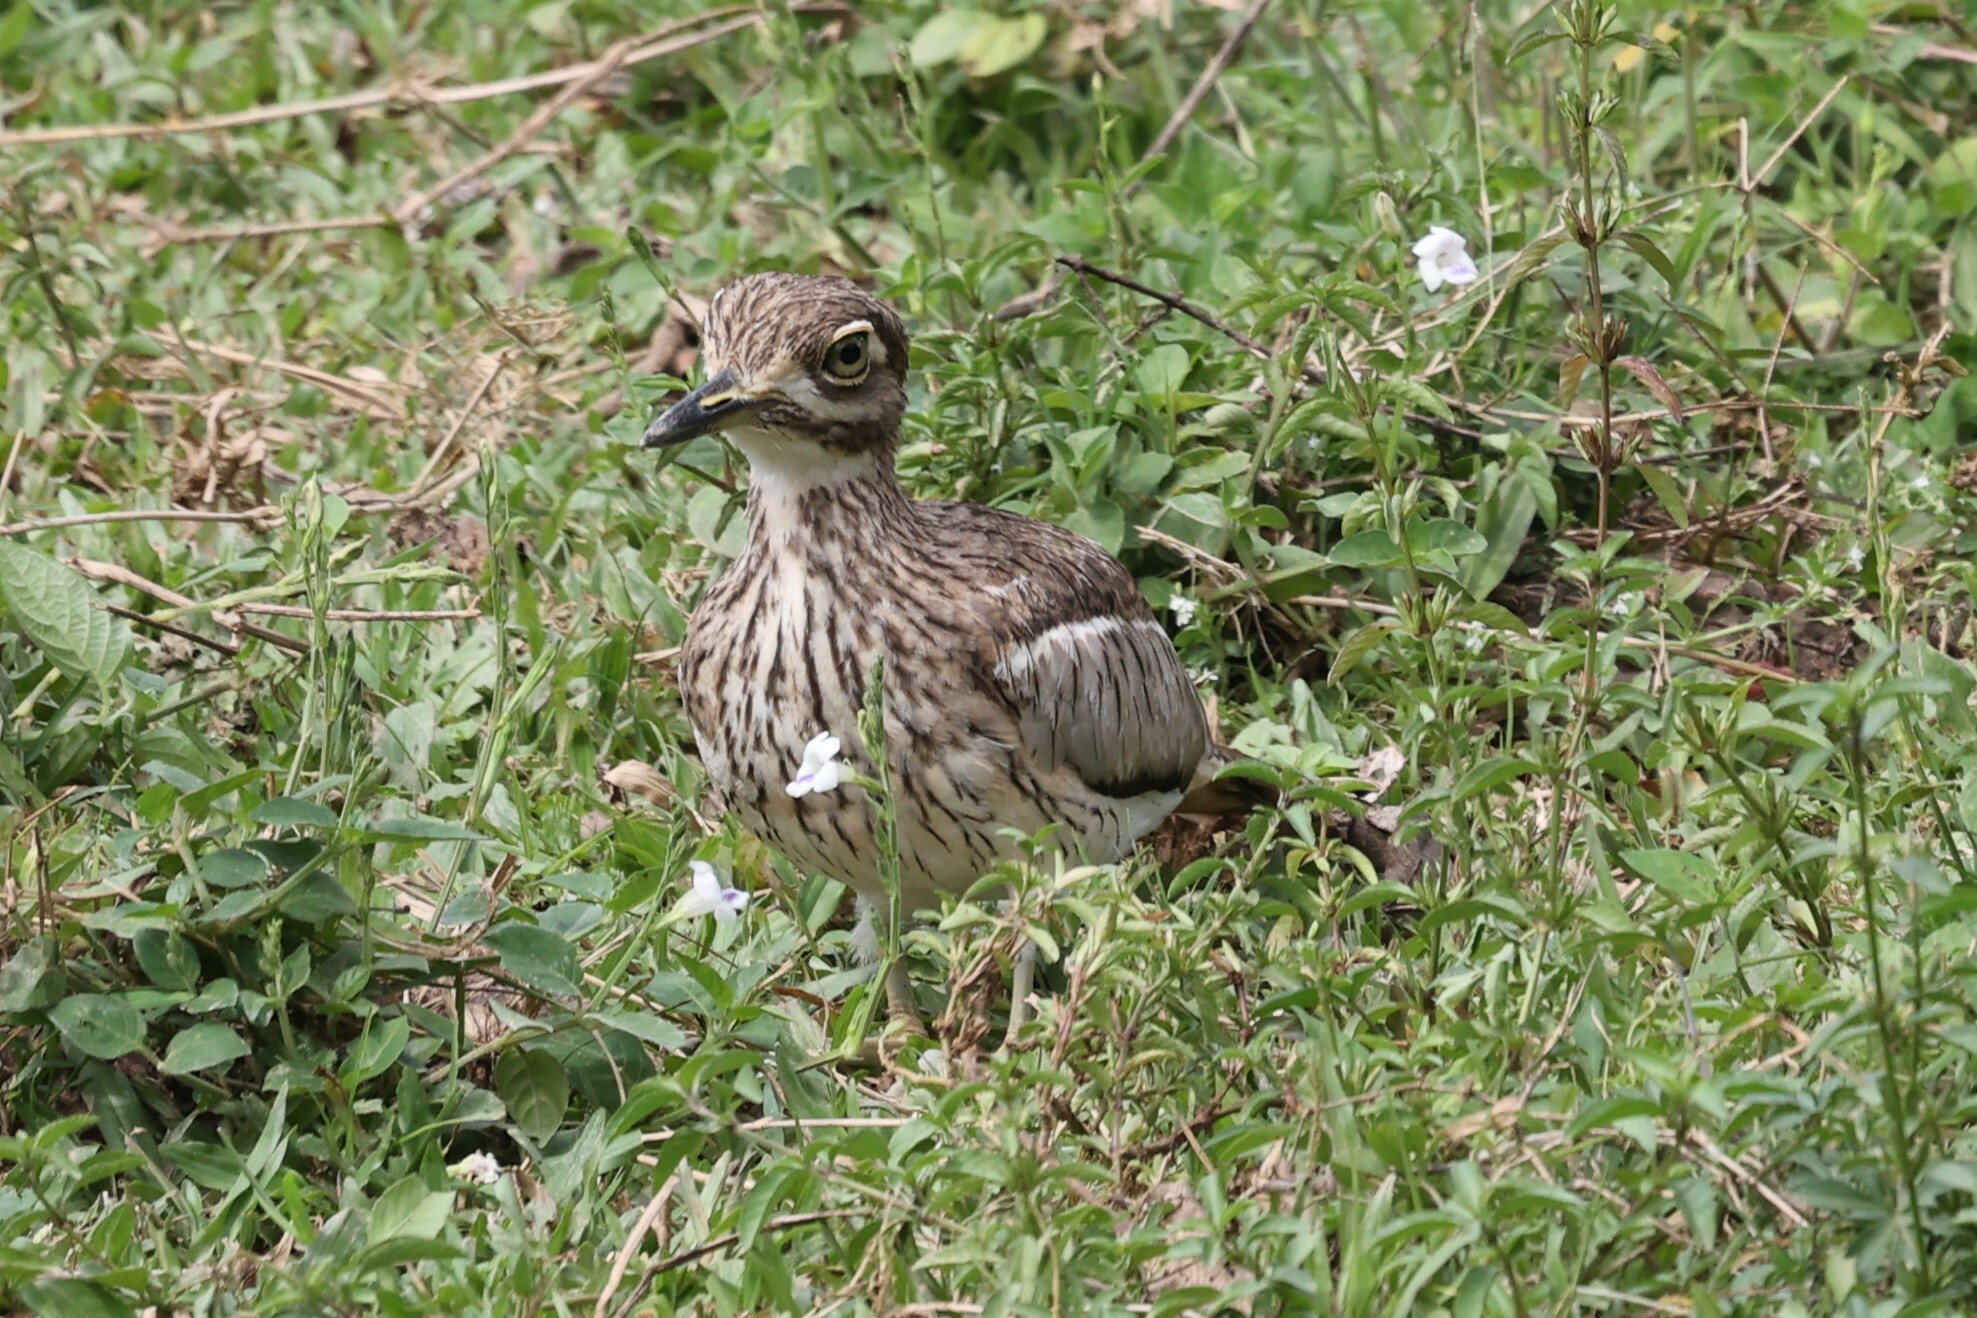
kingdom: Animalia
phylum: Chordata
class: Aves
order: Charadriiformes
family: Burhinidae
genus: Burhinus
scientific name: Burhinus vermiculatus
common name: Water thick-knee
